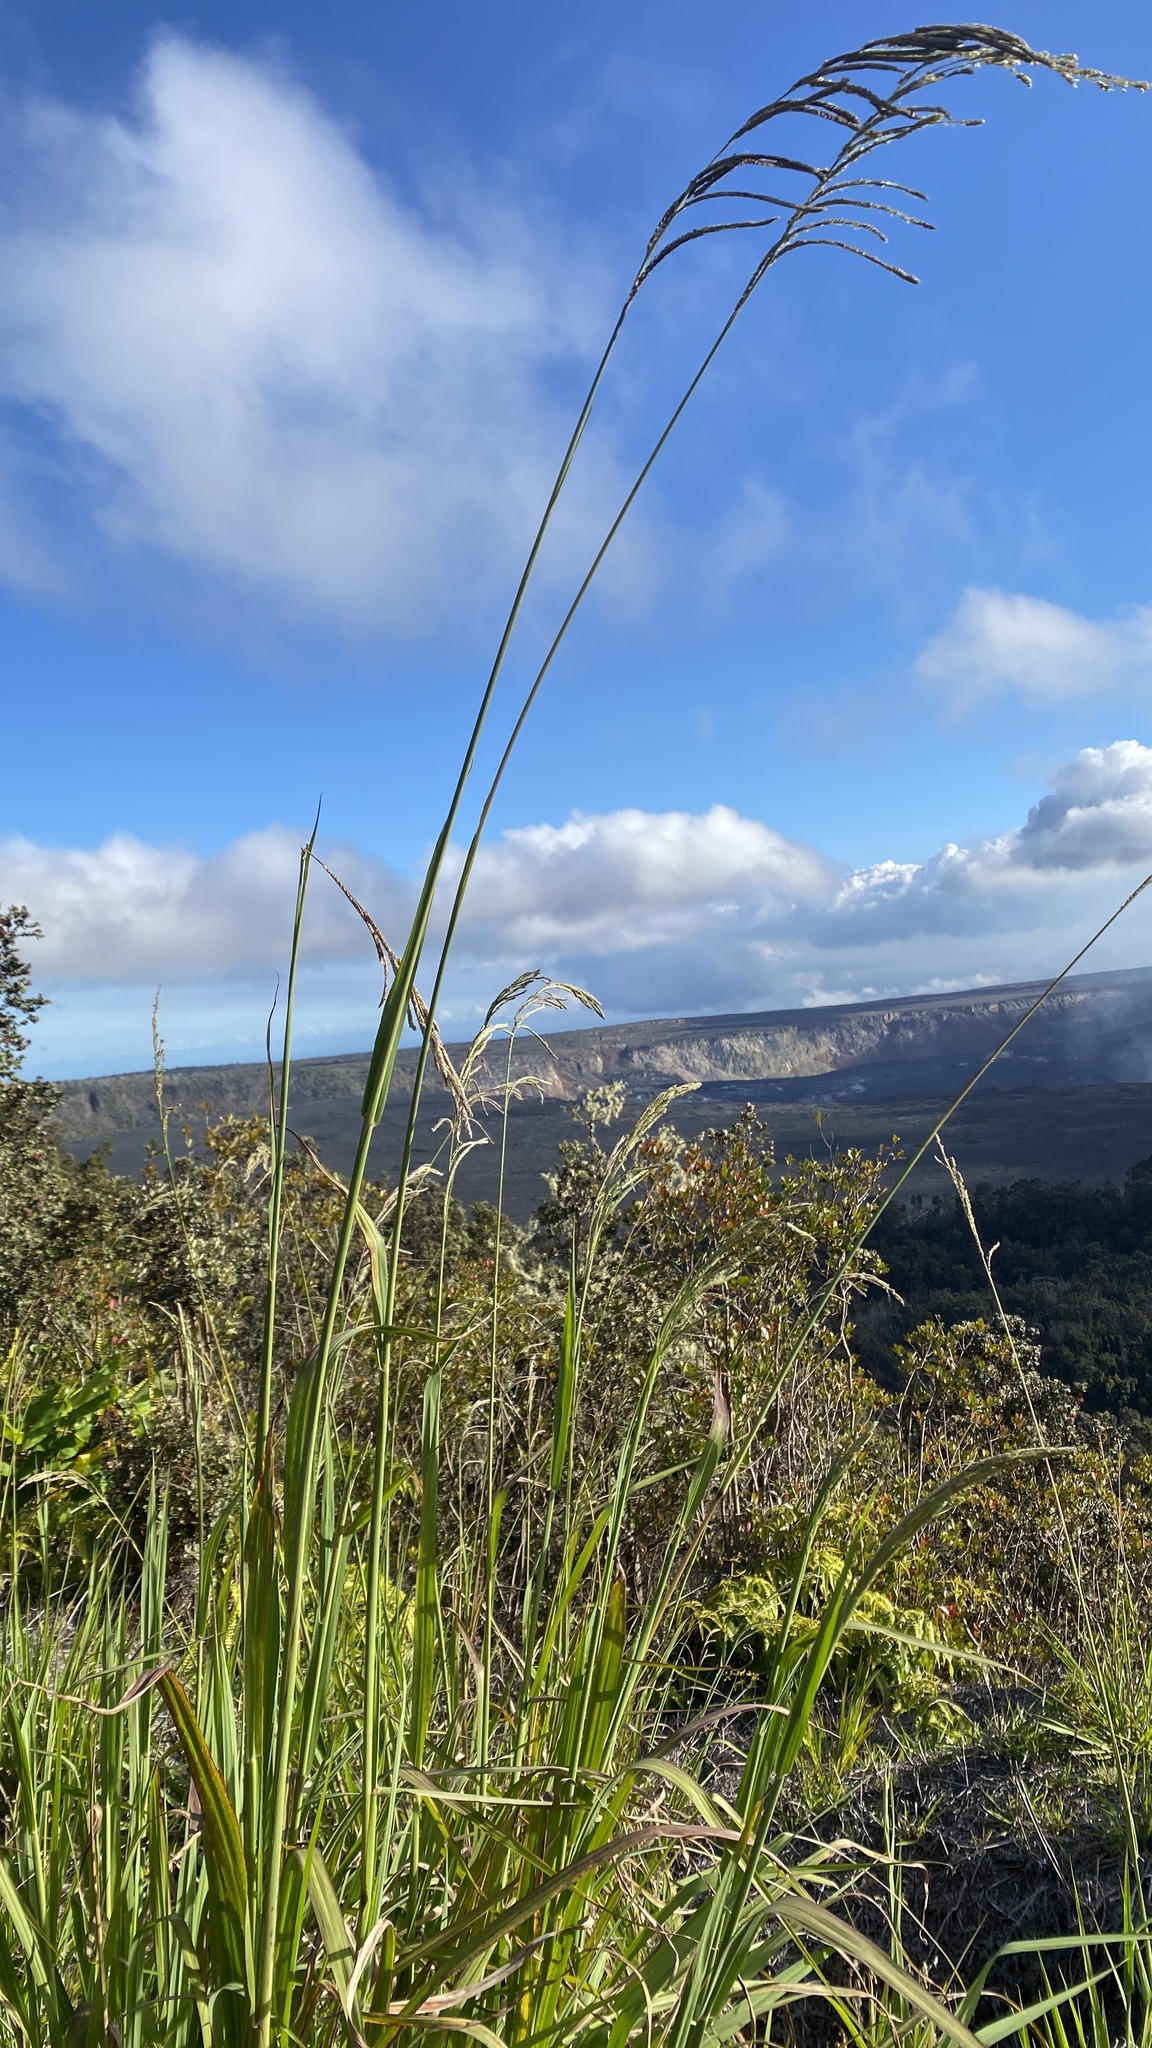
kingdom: Plantae
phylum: Tracheophyta
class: Liliopsida
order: Poales
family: Poaceae
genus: Paspalum
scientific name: Paspalum urvillei
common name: Vasey's grass
